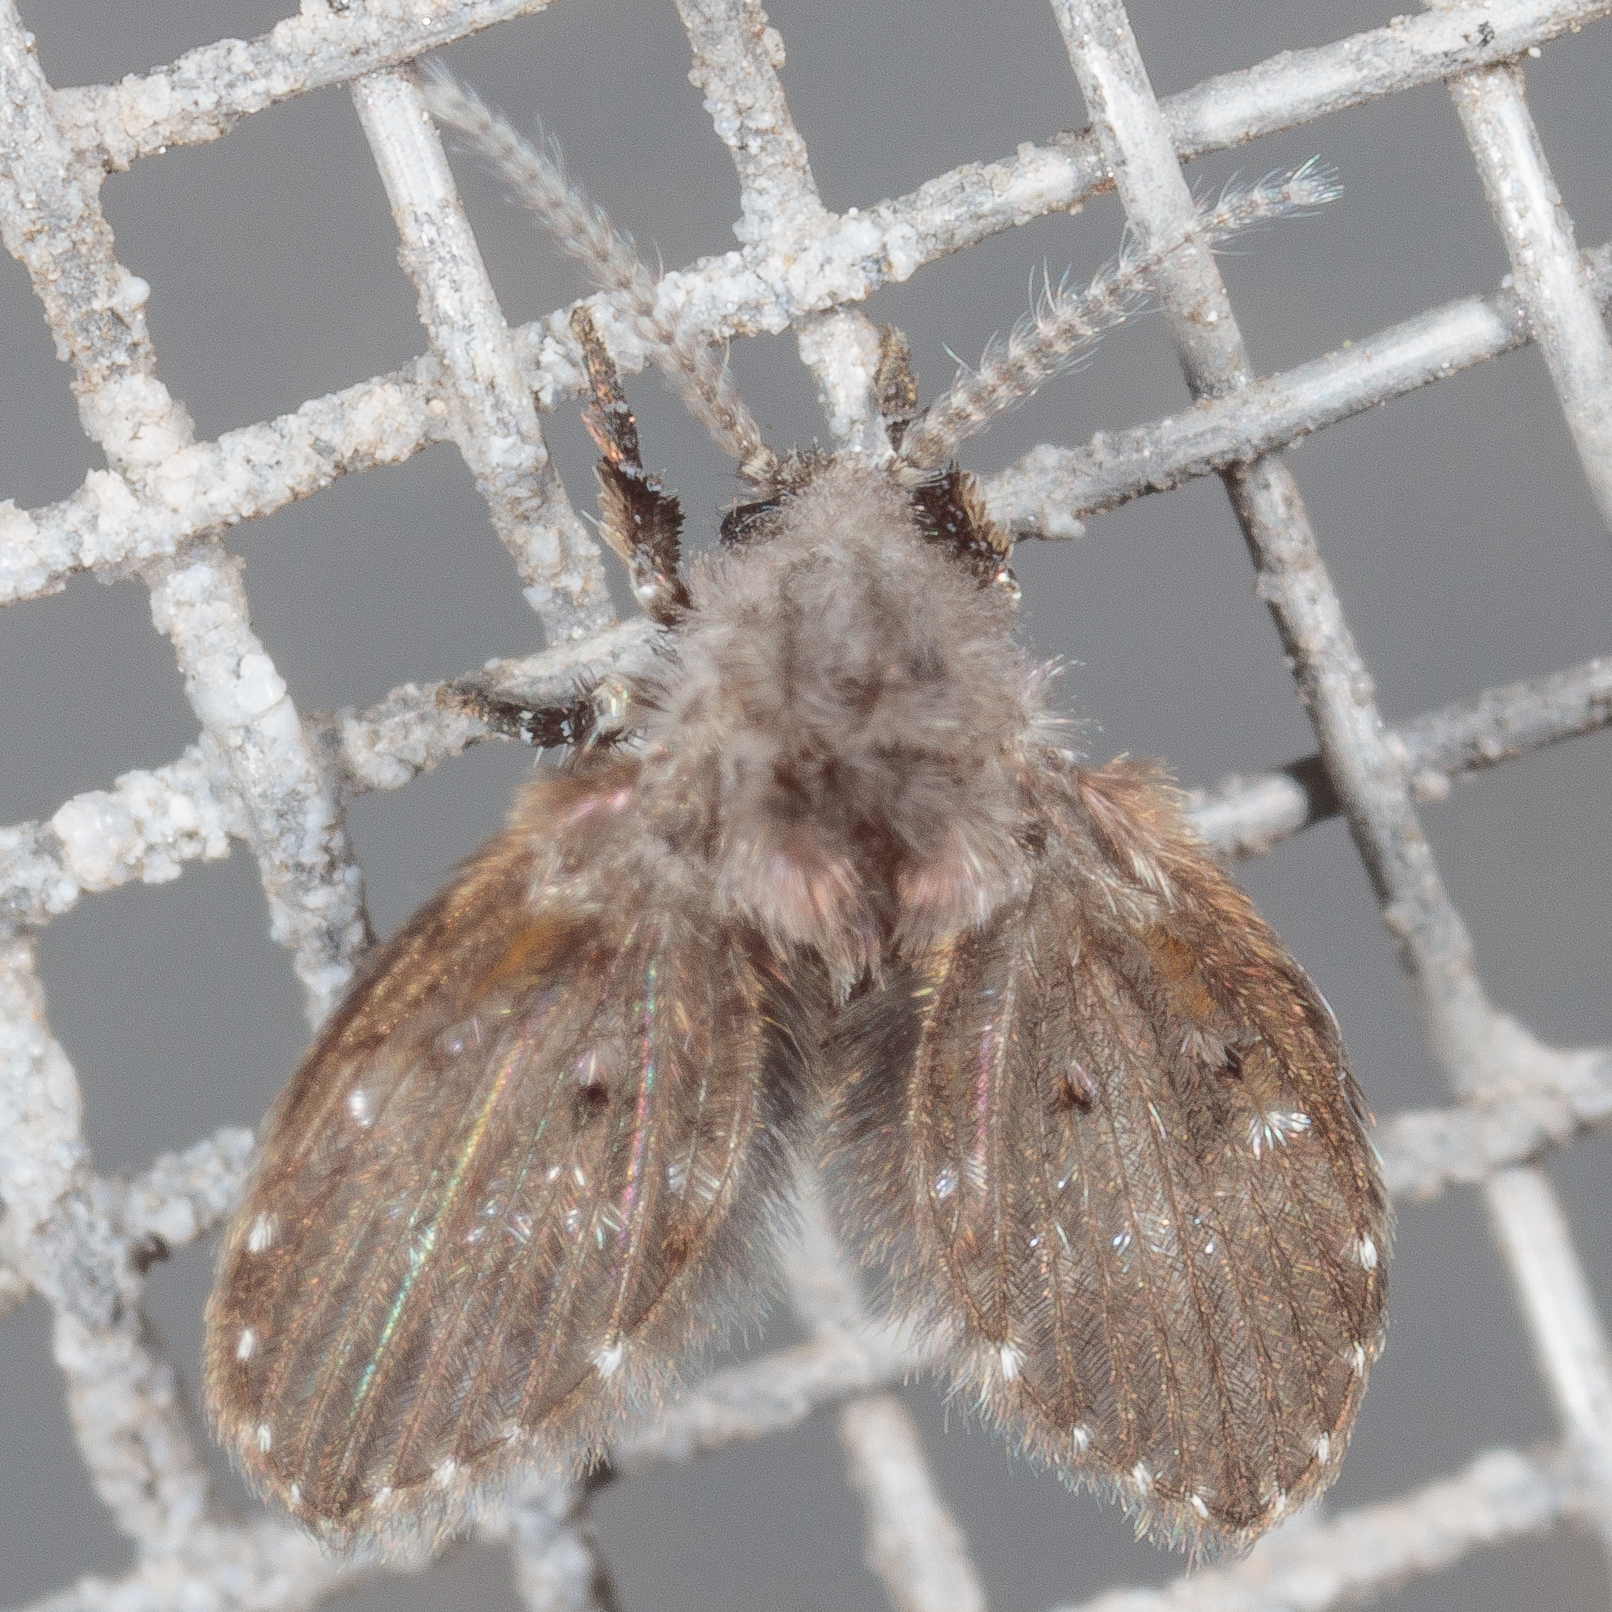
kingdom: Animalia
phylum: Arthropoda
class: Insecta
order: Diptera
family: Psychodidae
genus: Clogmia
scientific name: Clogmia albipunctatus
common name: White-spotted moth fly
